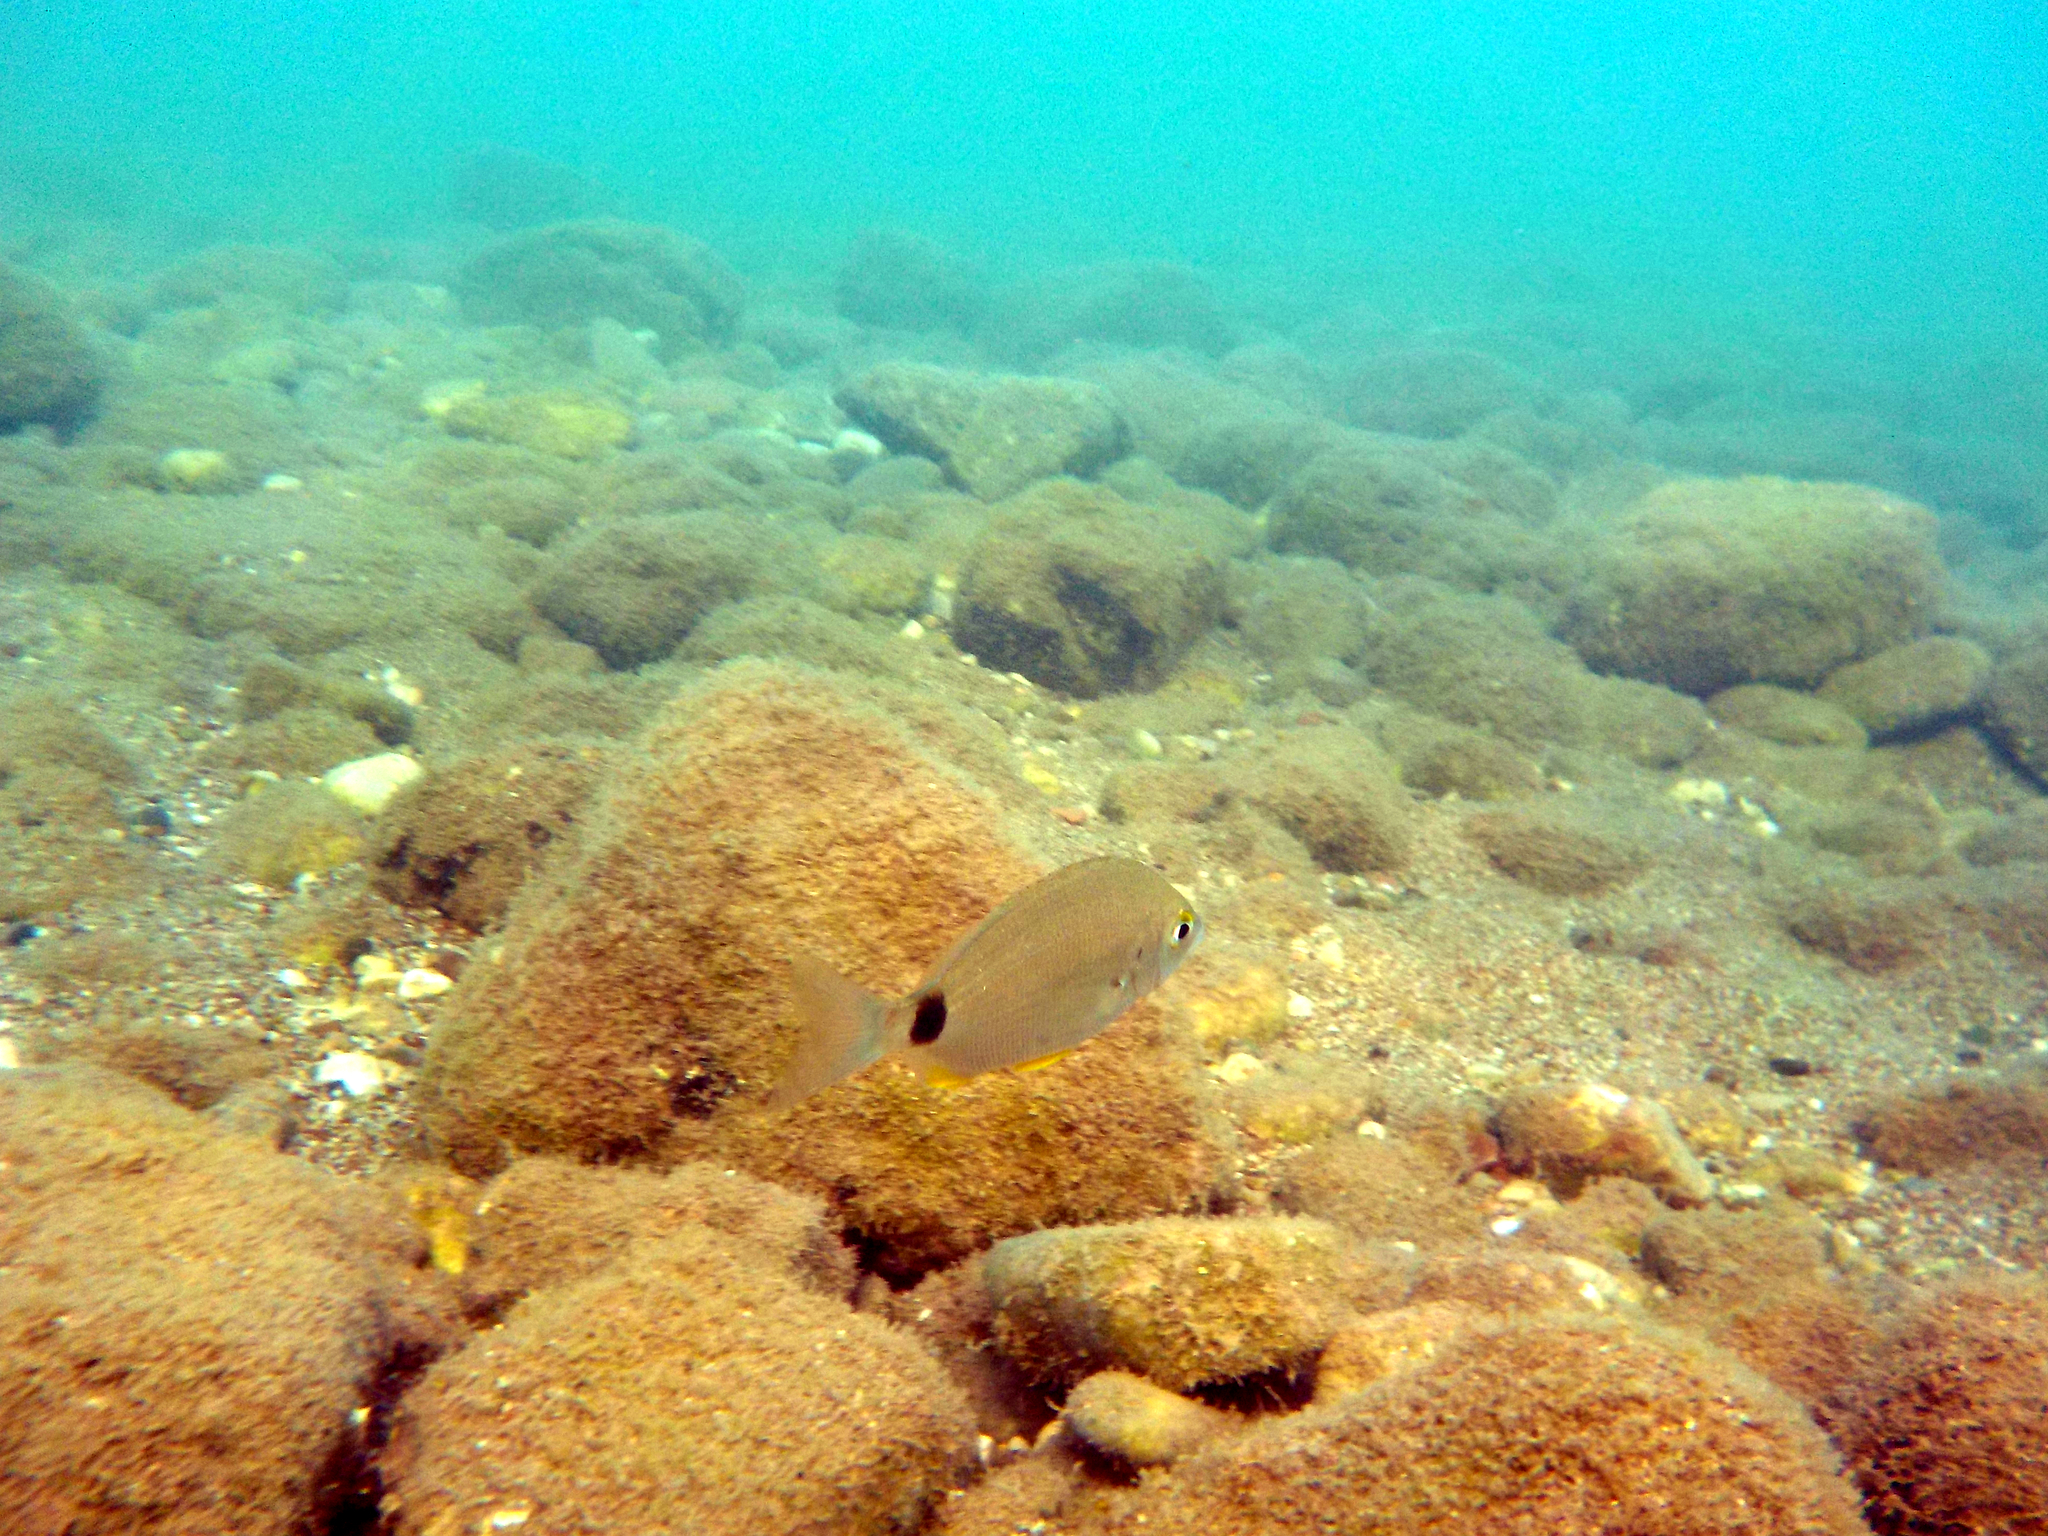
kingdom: Animalia
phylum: Chordata
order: Perciformes
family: Sparidae
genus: Diplodus
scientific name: Diplodus annularis
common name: Annular seabream
